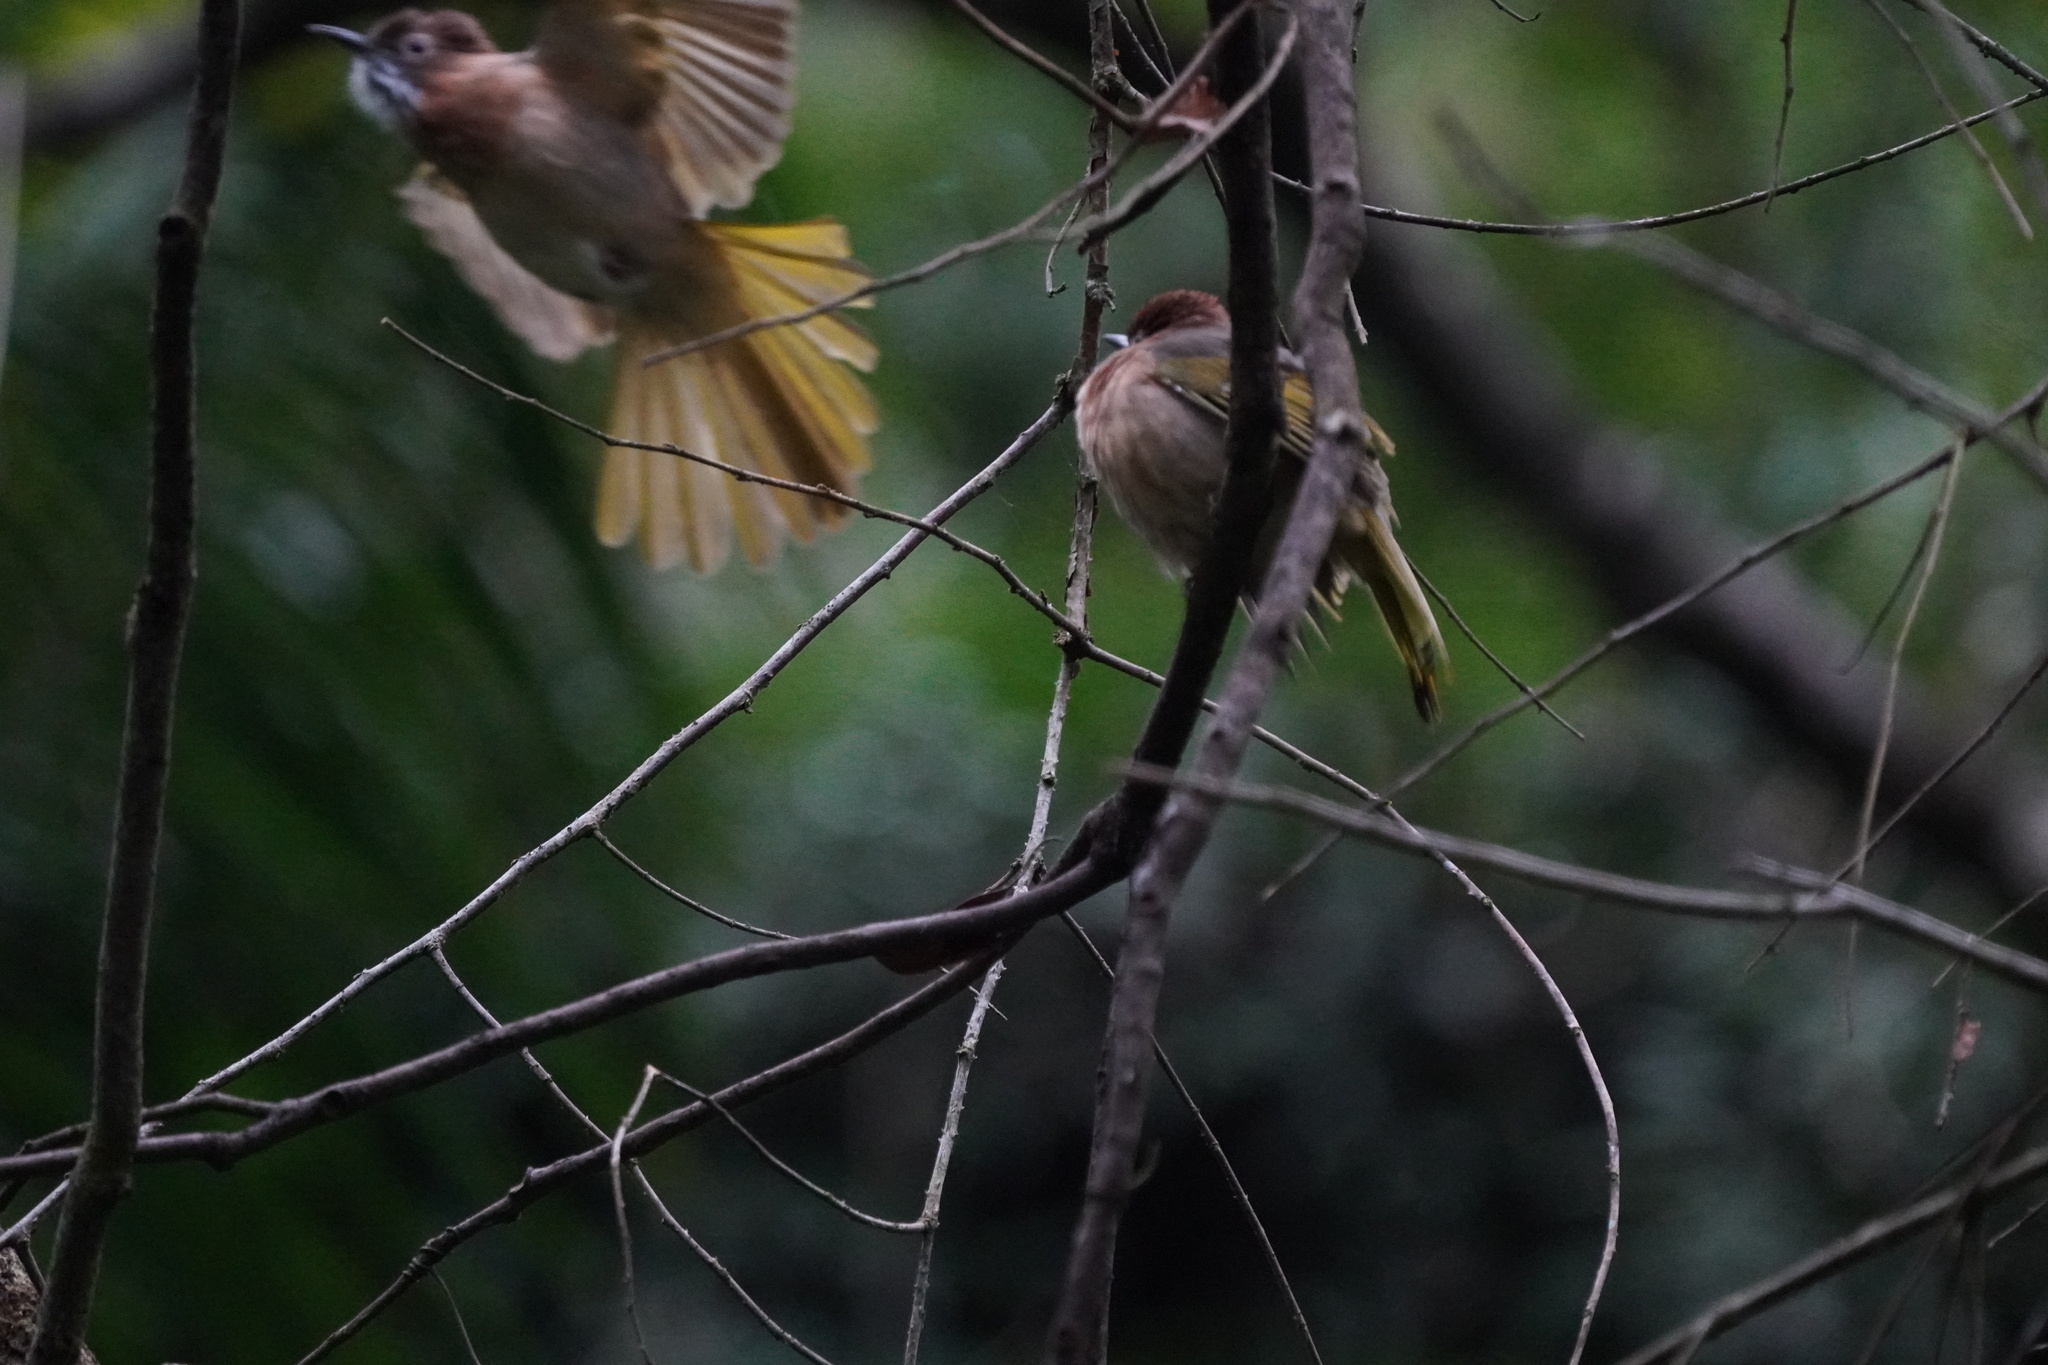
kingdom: Animalia
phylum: Chordata
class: Aves
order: Passeriformes
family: Pycnonotidae
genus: Ixos
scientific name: Ixos mcclellandii
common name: Mountain bulbul
